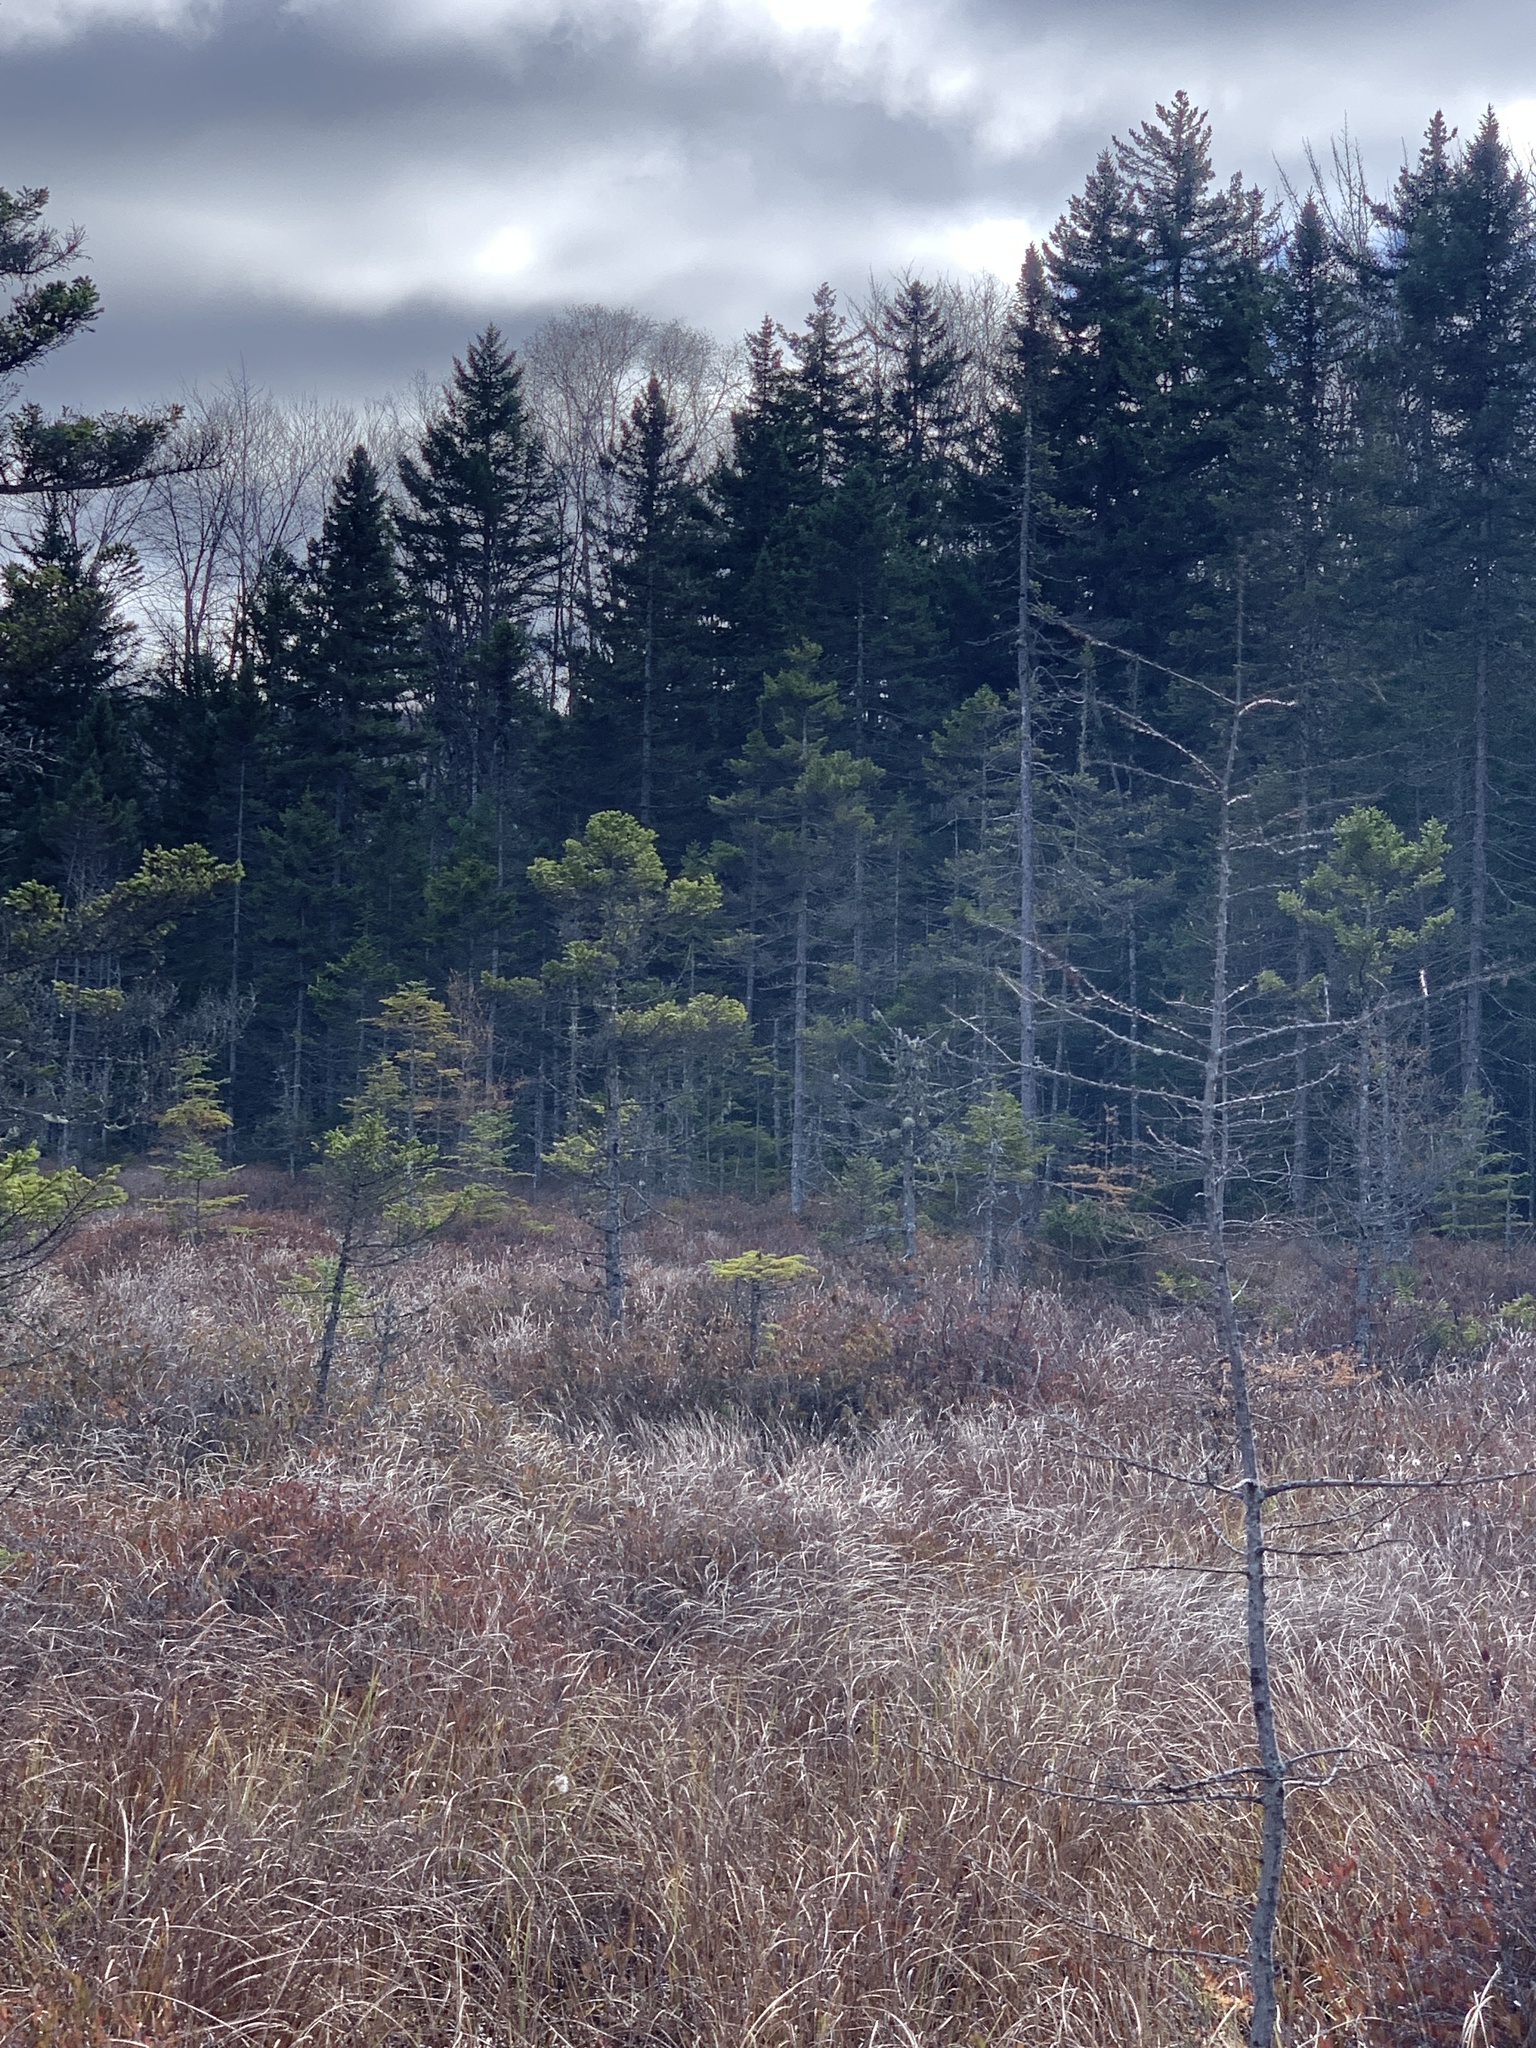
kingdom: Plantae
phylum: Tracheophyta
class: Pinopsida
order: Pinales
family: Pinaceae
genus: Picea
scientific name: Picea mariana
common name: Black spruce
